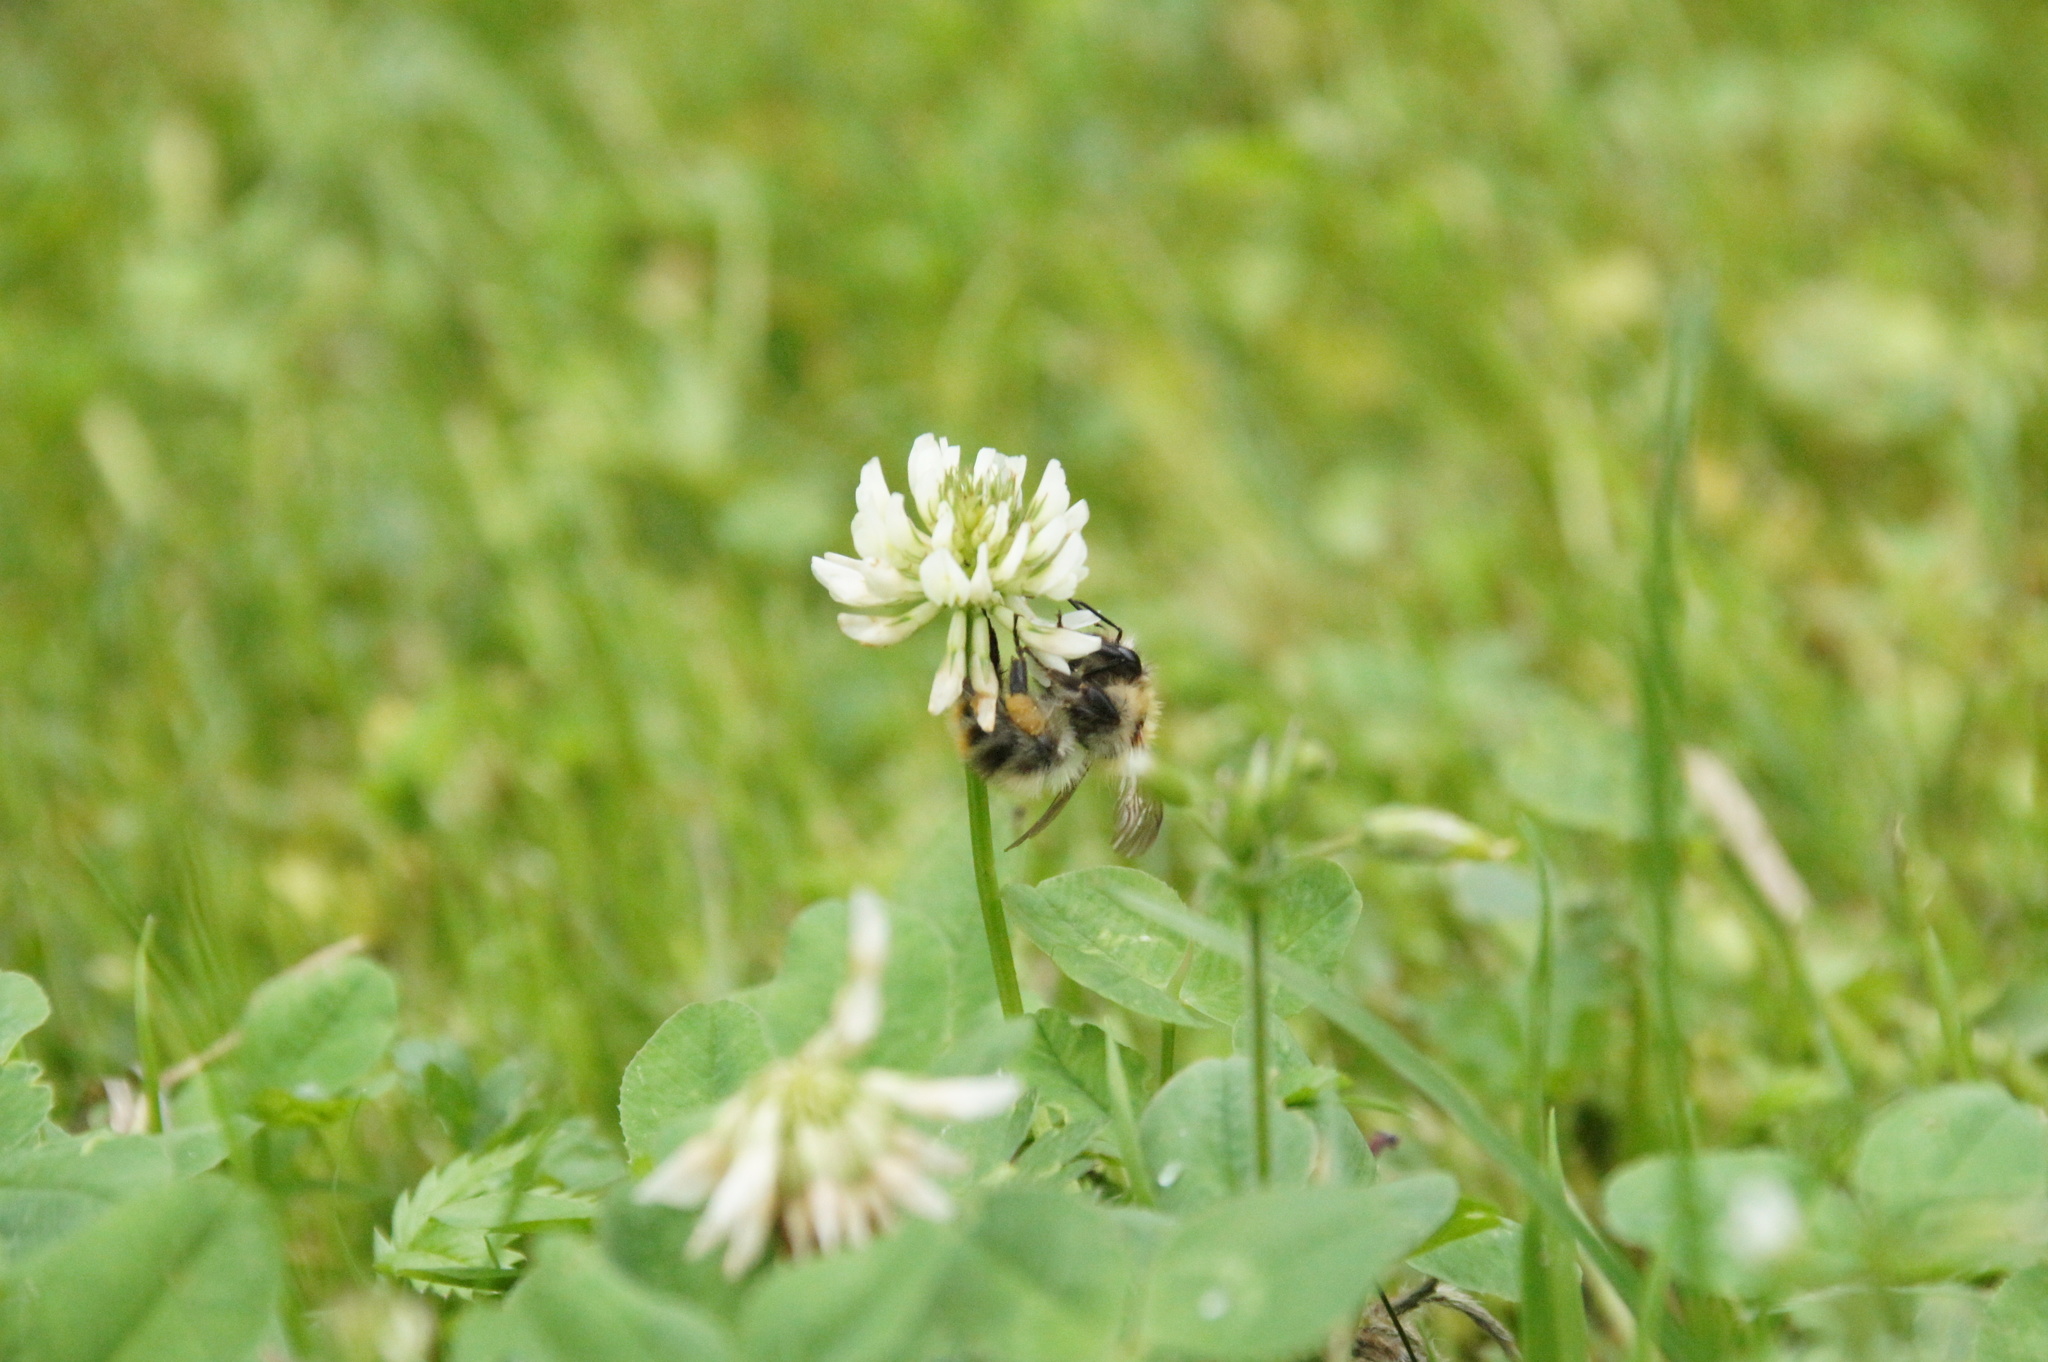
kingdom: Animalia
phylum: Arthropoda
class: Insecta
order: Hymenoptera
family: Apidae
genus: Bombus
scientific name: Bombus pascuorum
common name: Common carder bee
